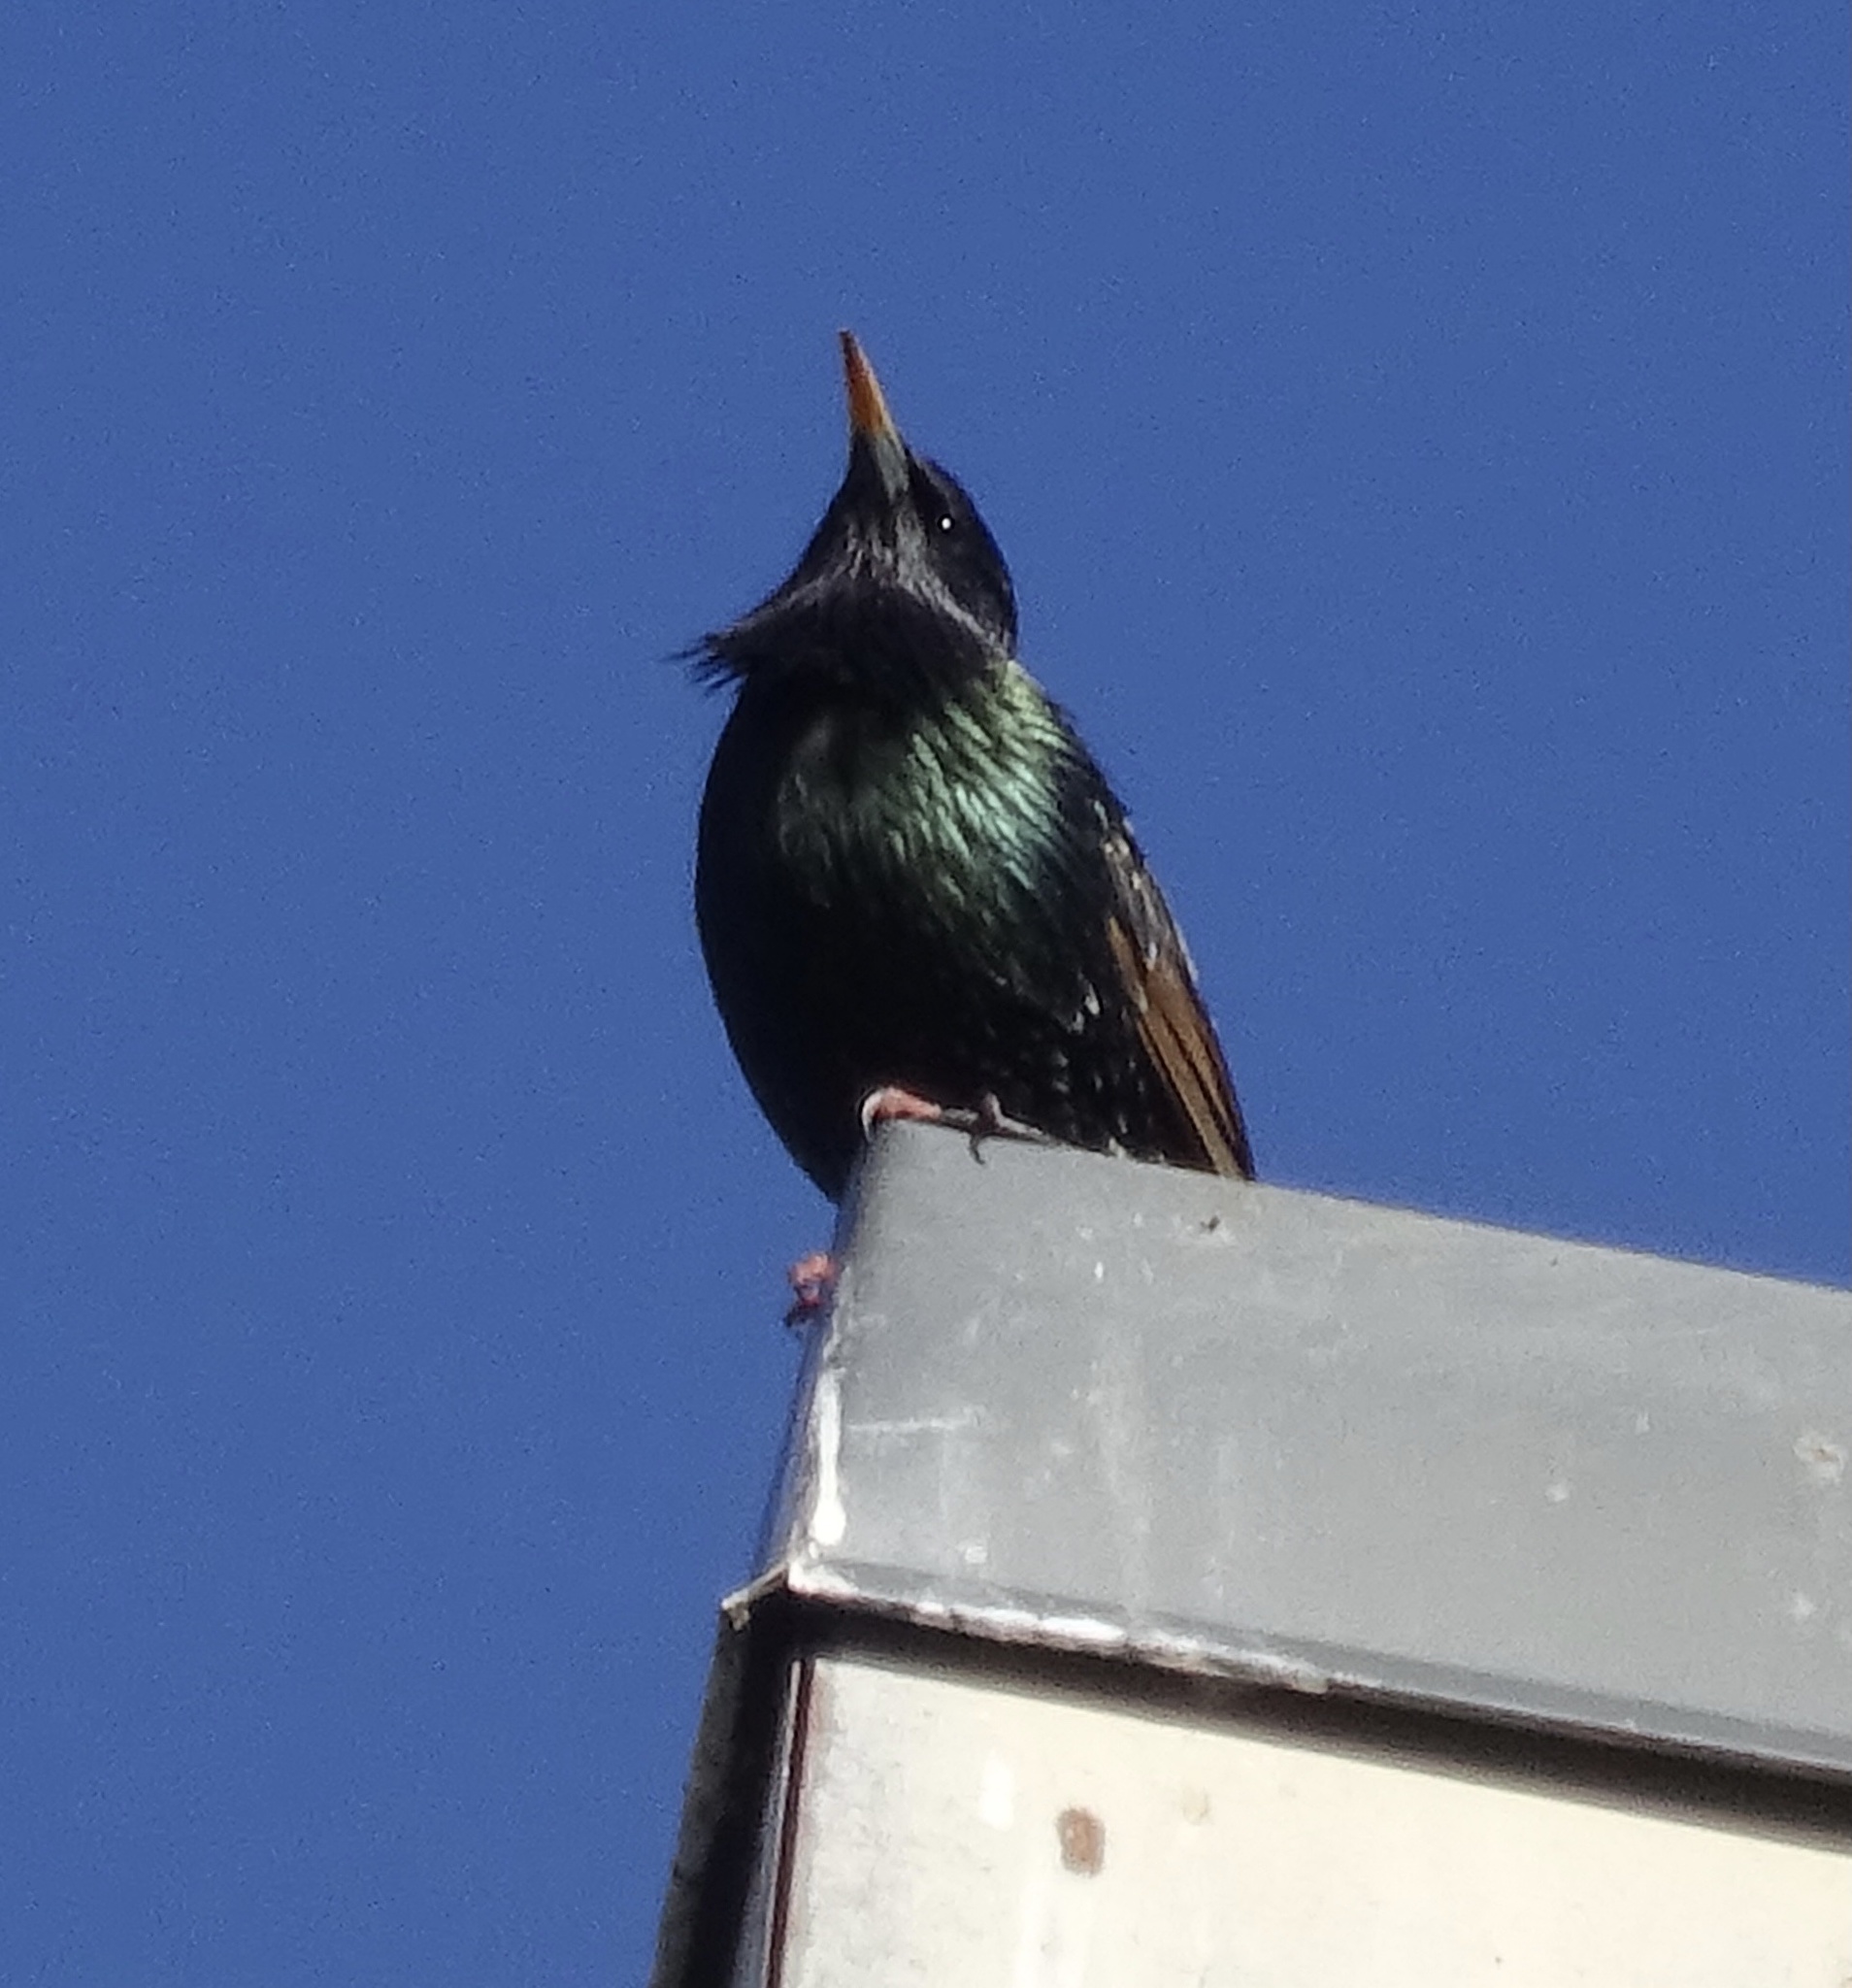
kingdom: Animalia
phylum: Chordata
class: Aves
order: Passeriformes
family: Sturnidae
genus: Sturnus
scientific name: Sturnus vulgaris
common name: Common starling
